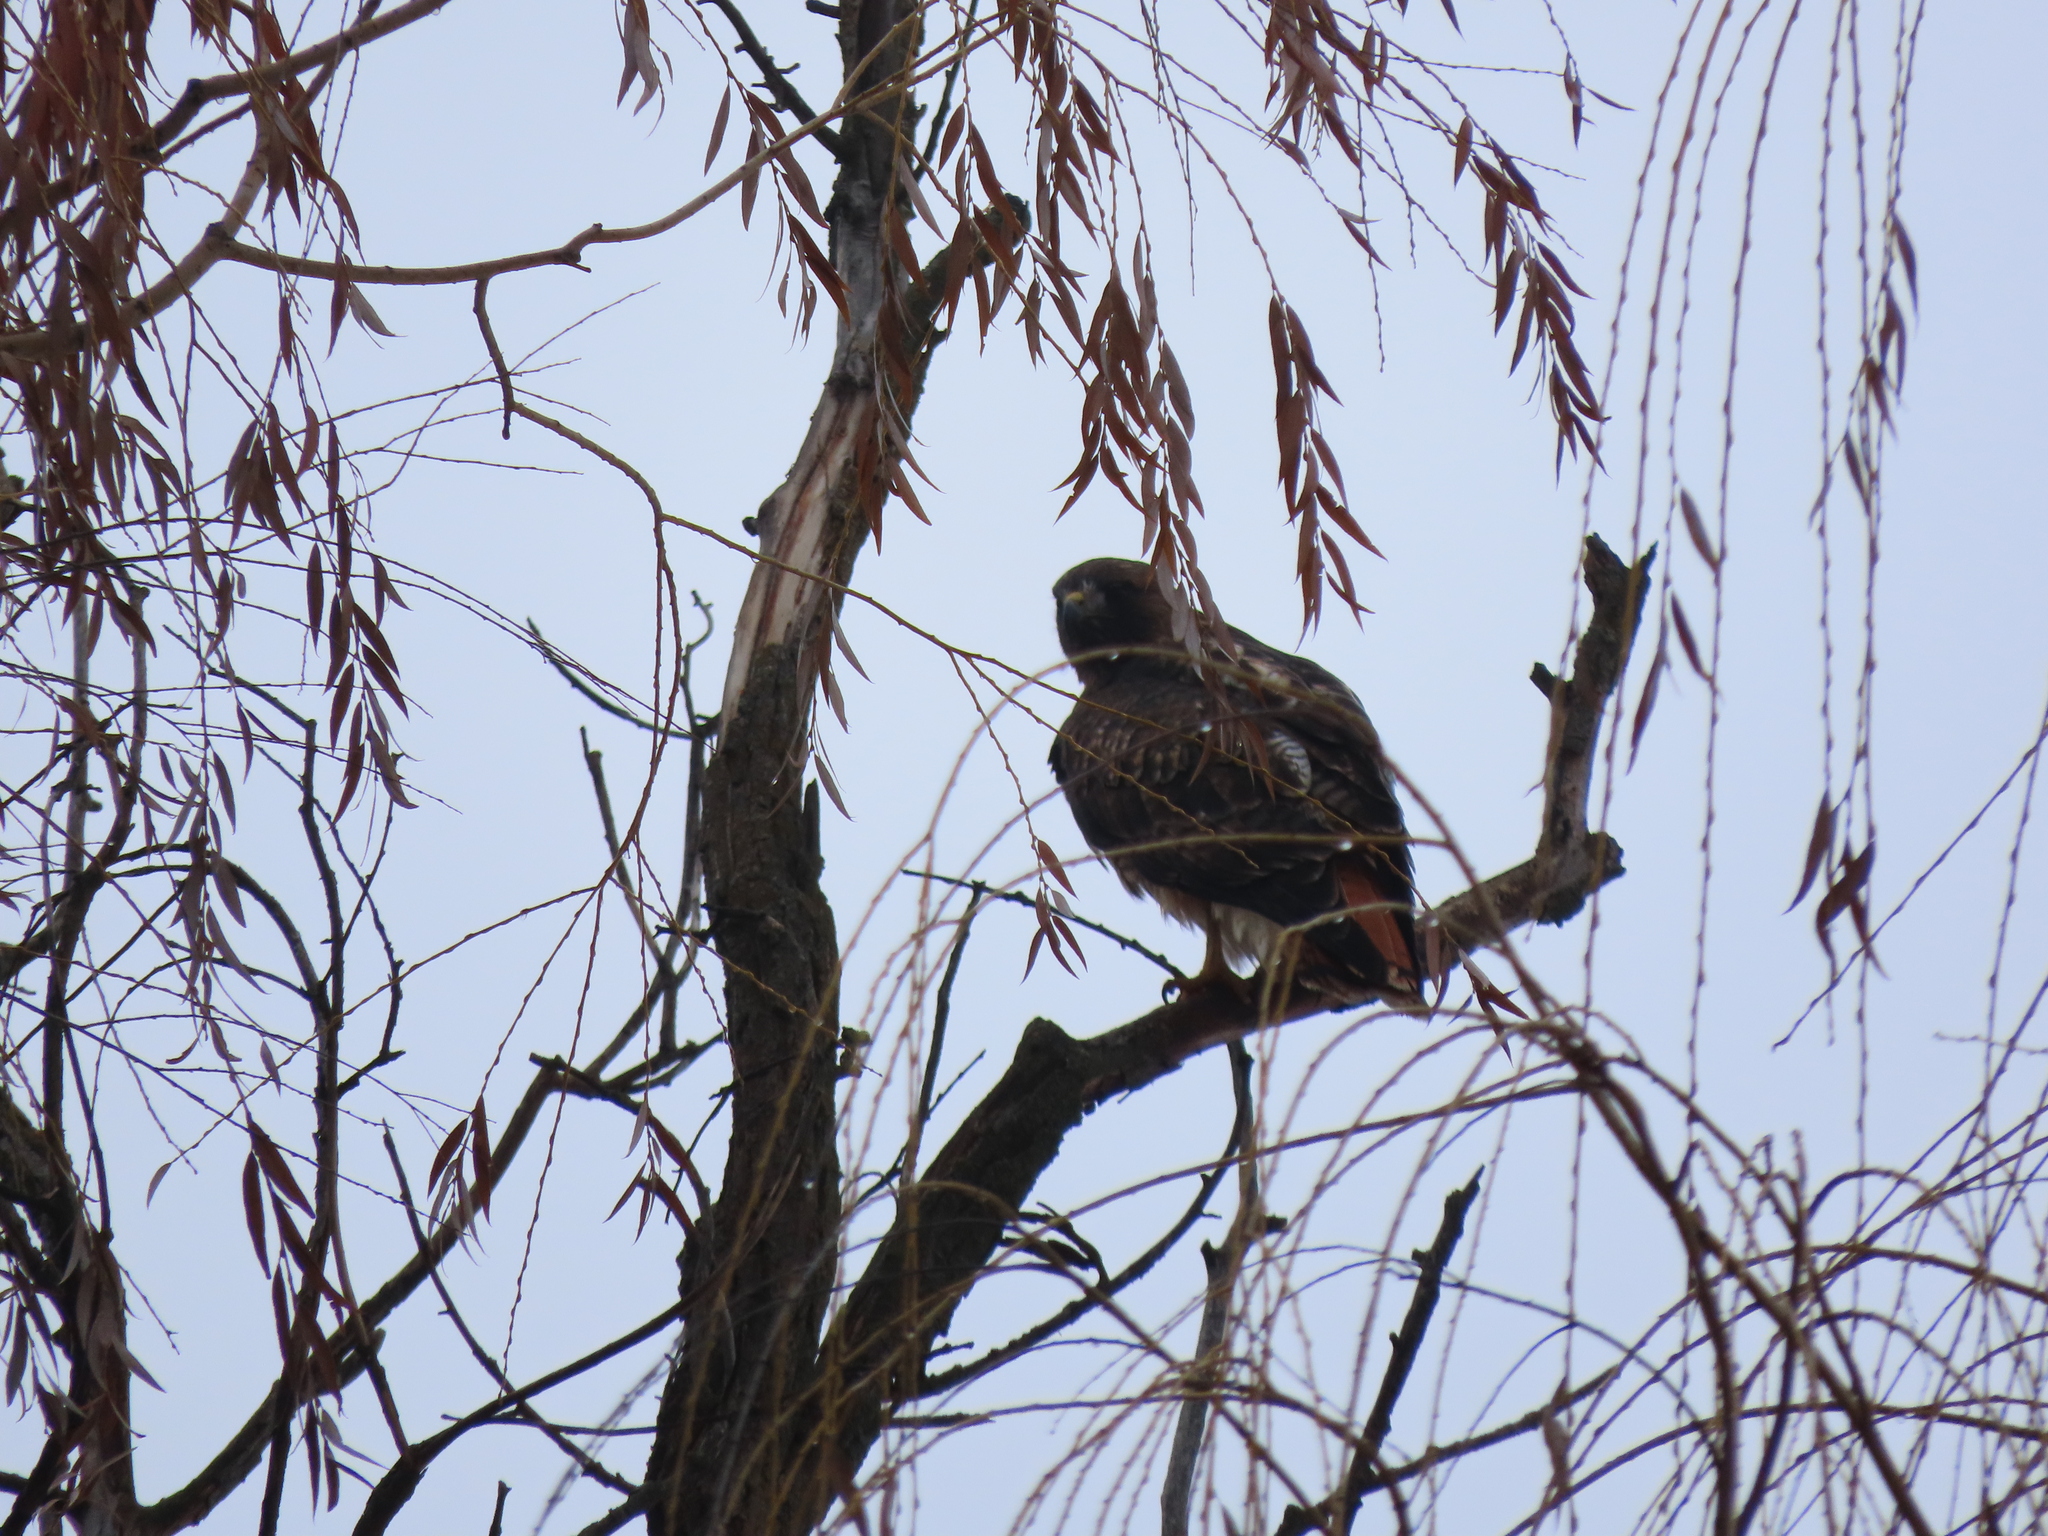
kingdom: Animalia
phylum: Chordata
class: Aves
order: Accipitriformes
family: Accipitridae
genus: Buteo
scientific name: Buteo jamaicensis
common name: Red-tailed hawk
